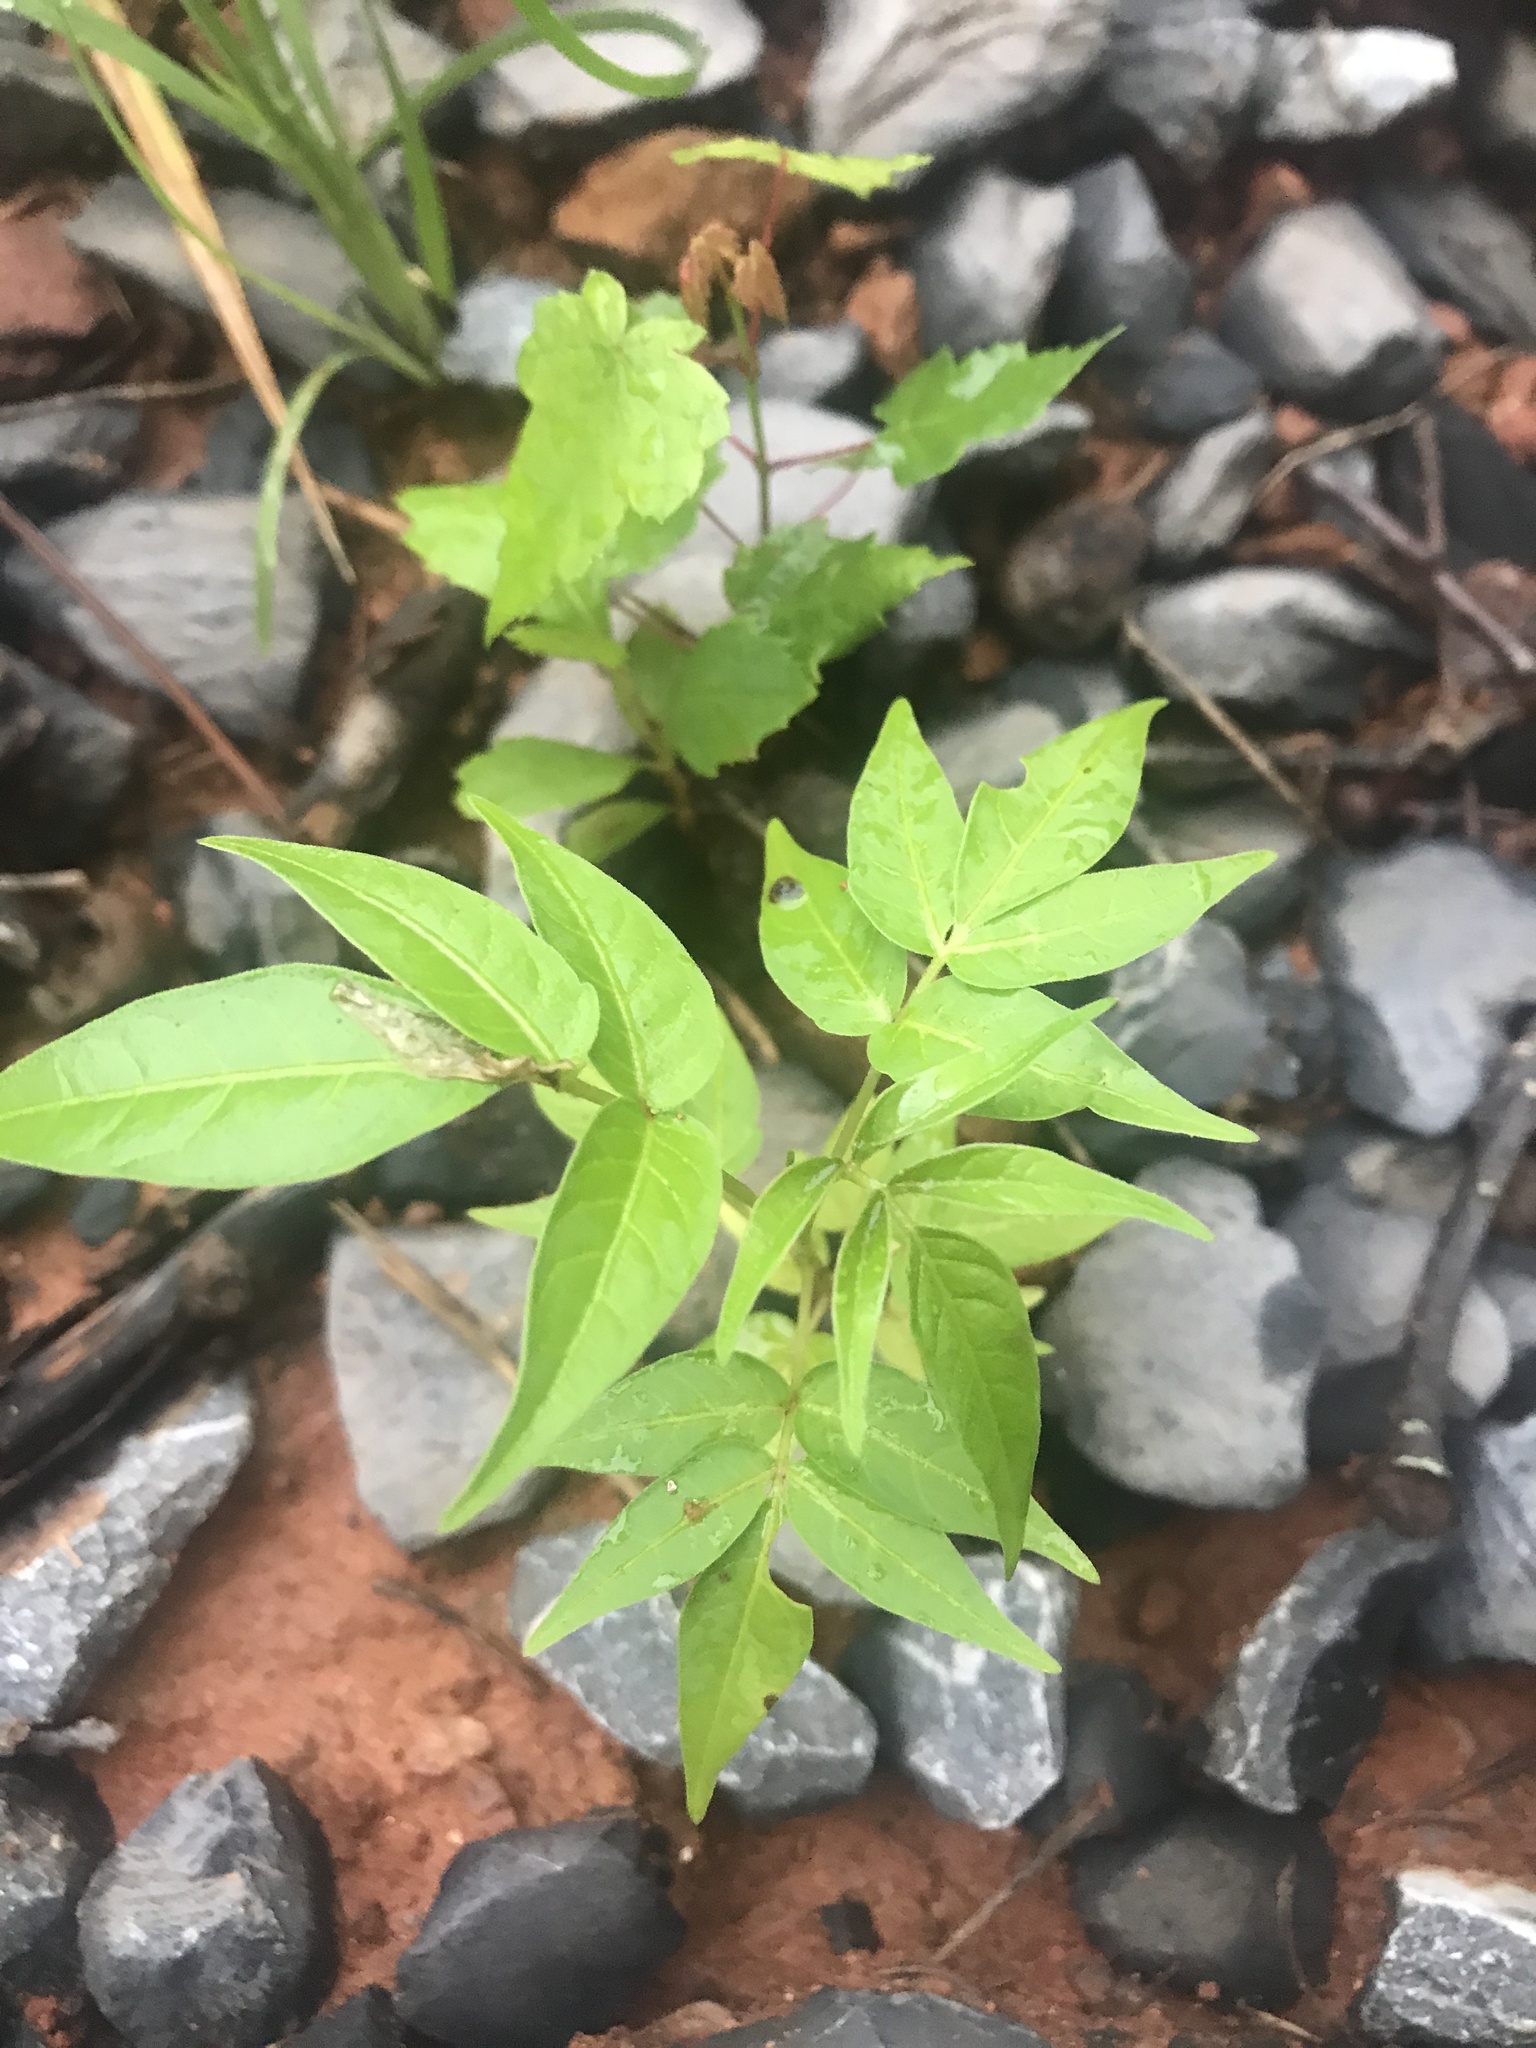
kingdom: Plantae
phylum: Tracheophyta
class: Magnoliopsida
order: Sapindales
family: Simaroubaceae
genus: Ailanthus
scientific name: Ailanthus altissima
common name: Tree-of-heaven
